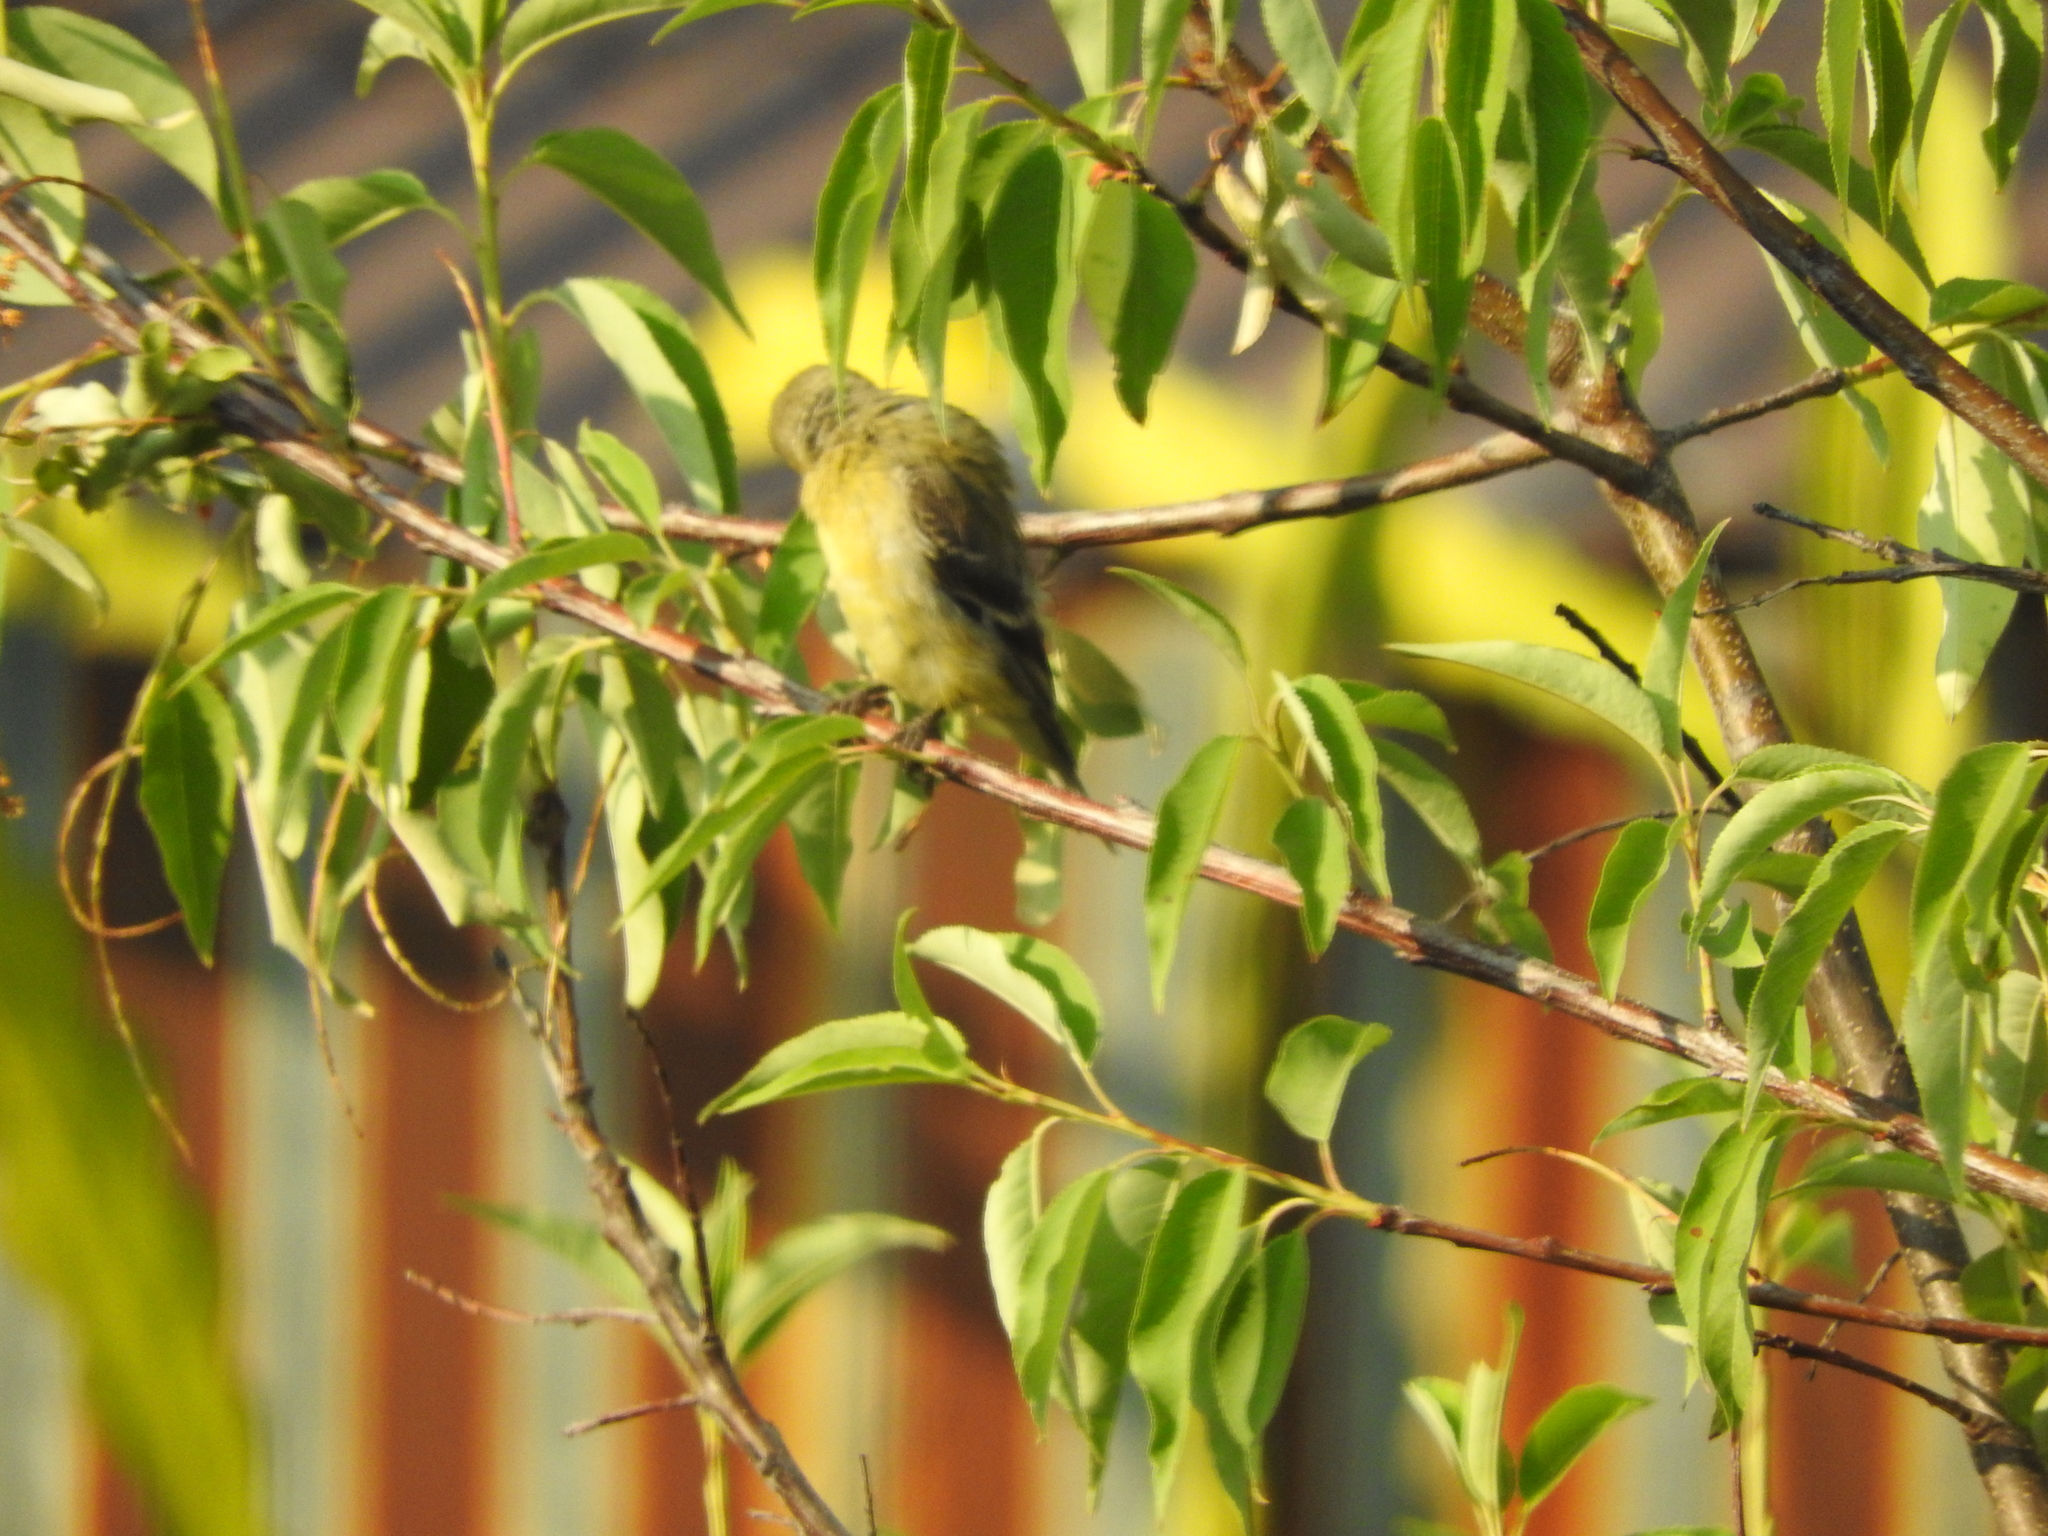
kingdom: Animalia
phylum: Chordata
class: Aves
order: Passeriformes
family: Fringillidae
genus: Spinus
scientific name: Spinus psaltria
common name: Lesser goldfinch
